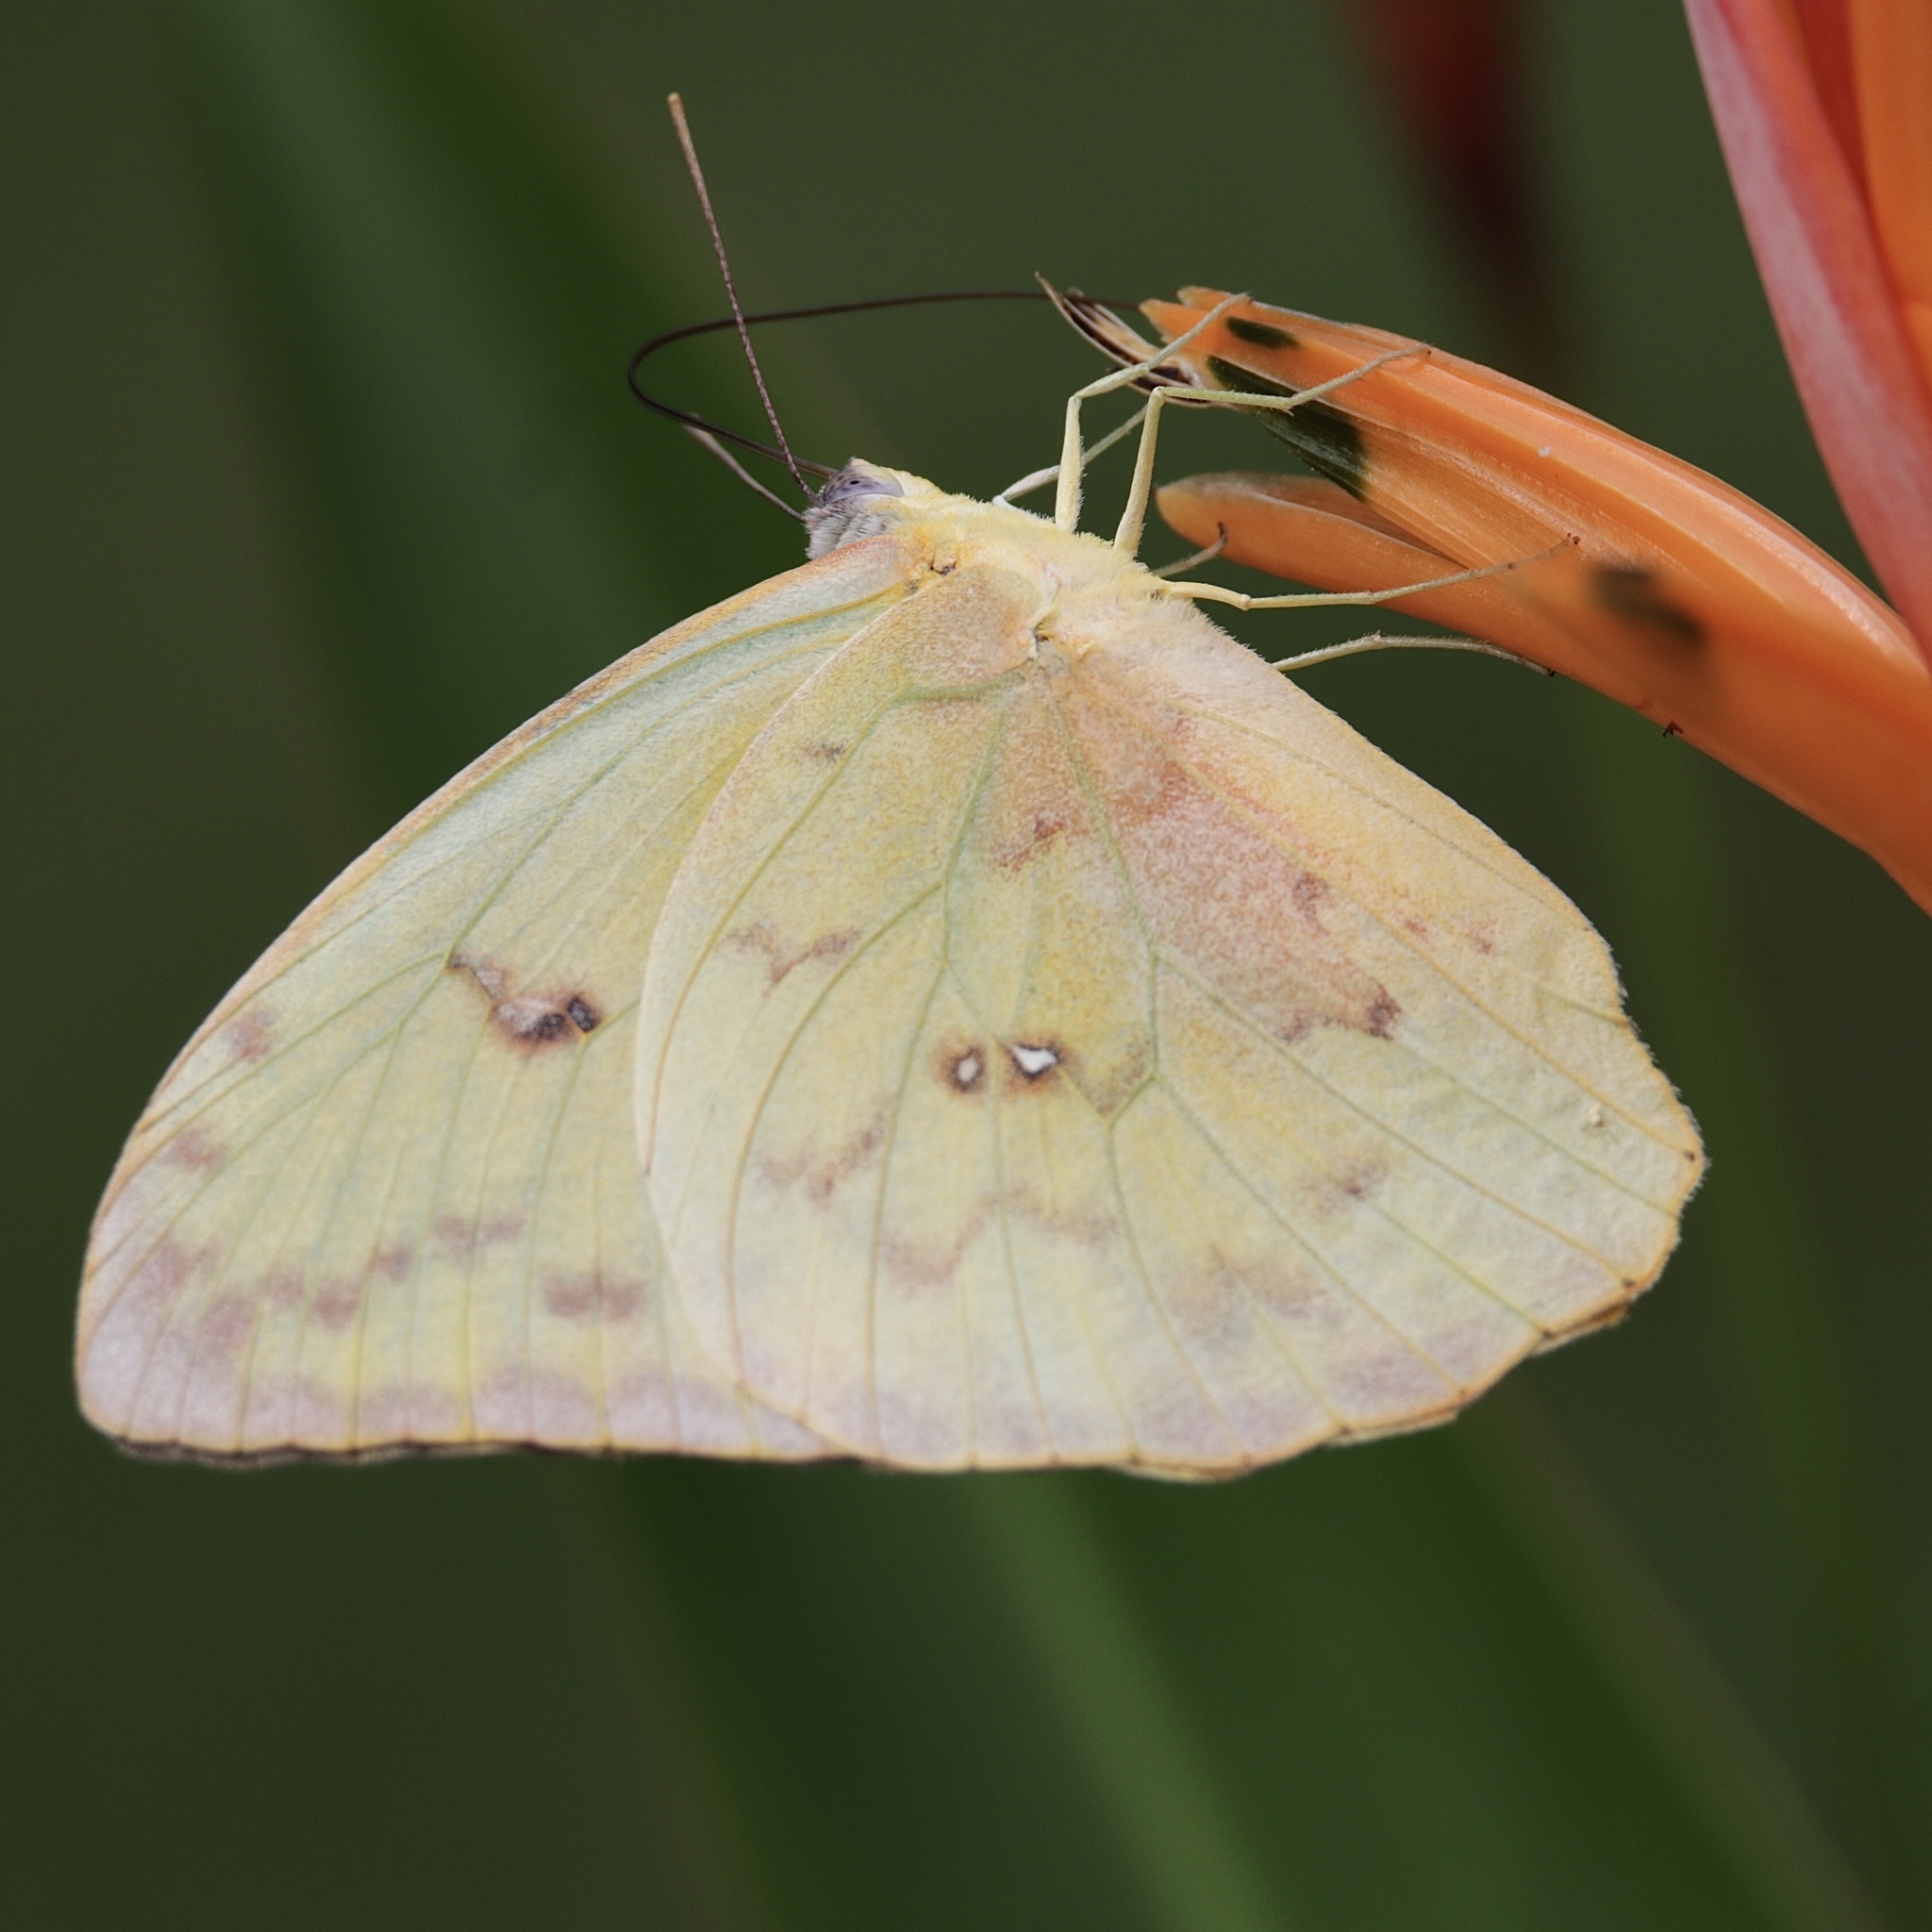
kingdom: Animalia
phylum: Arthropoda
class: Insecta
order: Lepidoptera
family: Pieridae
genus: Phoebis
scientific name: Phoebis agarithe
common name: Large orange sulphur
